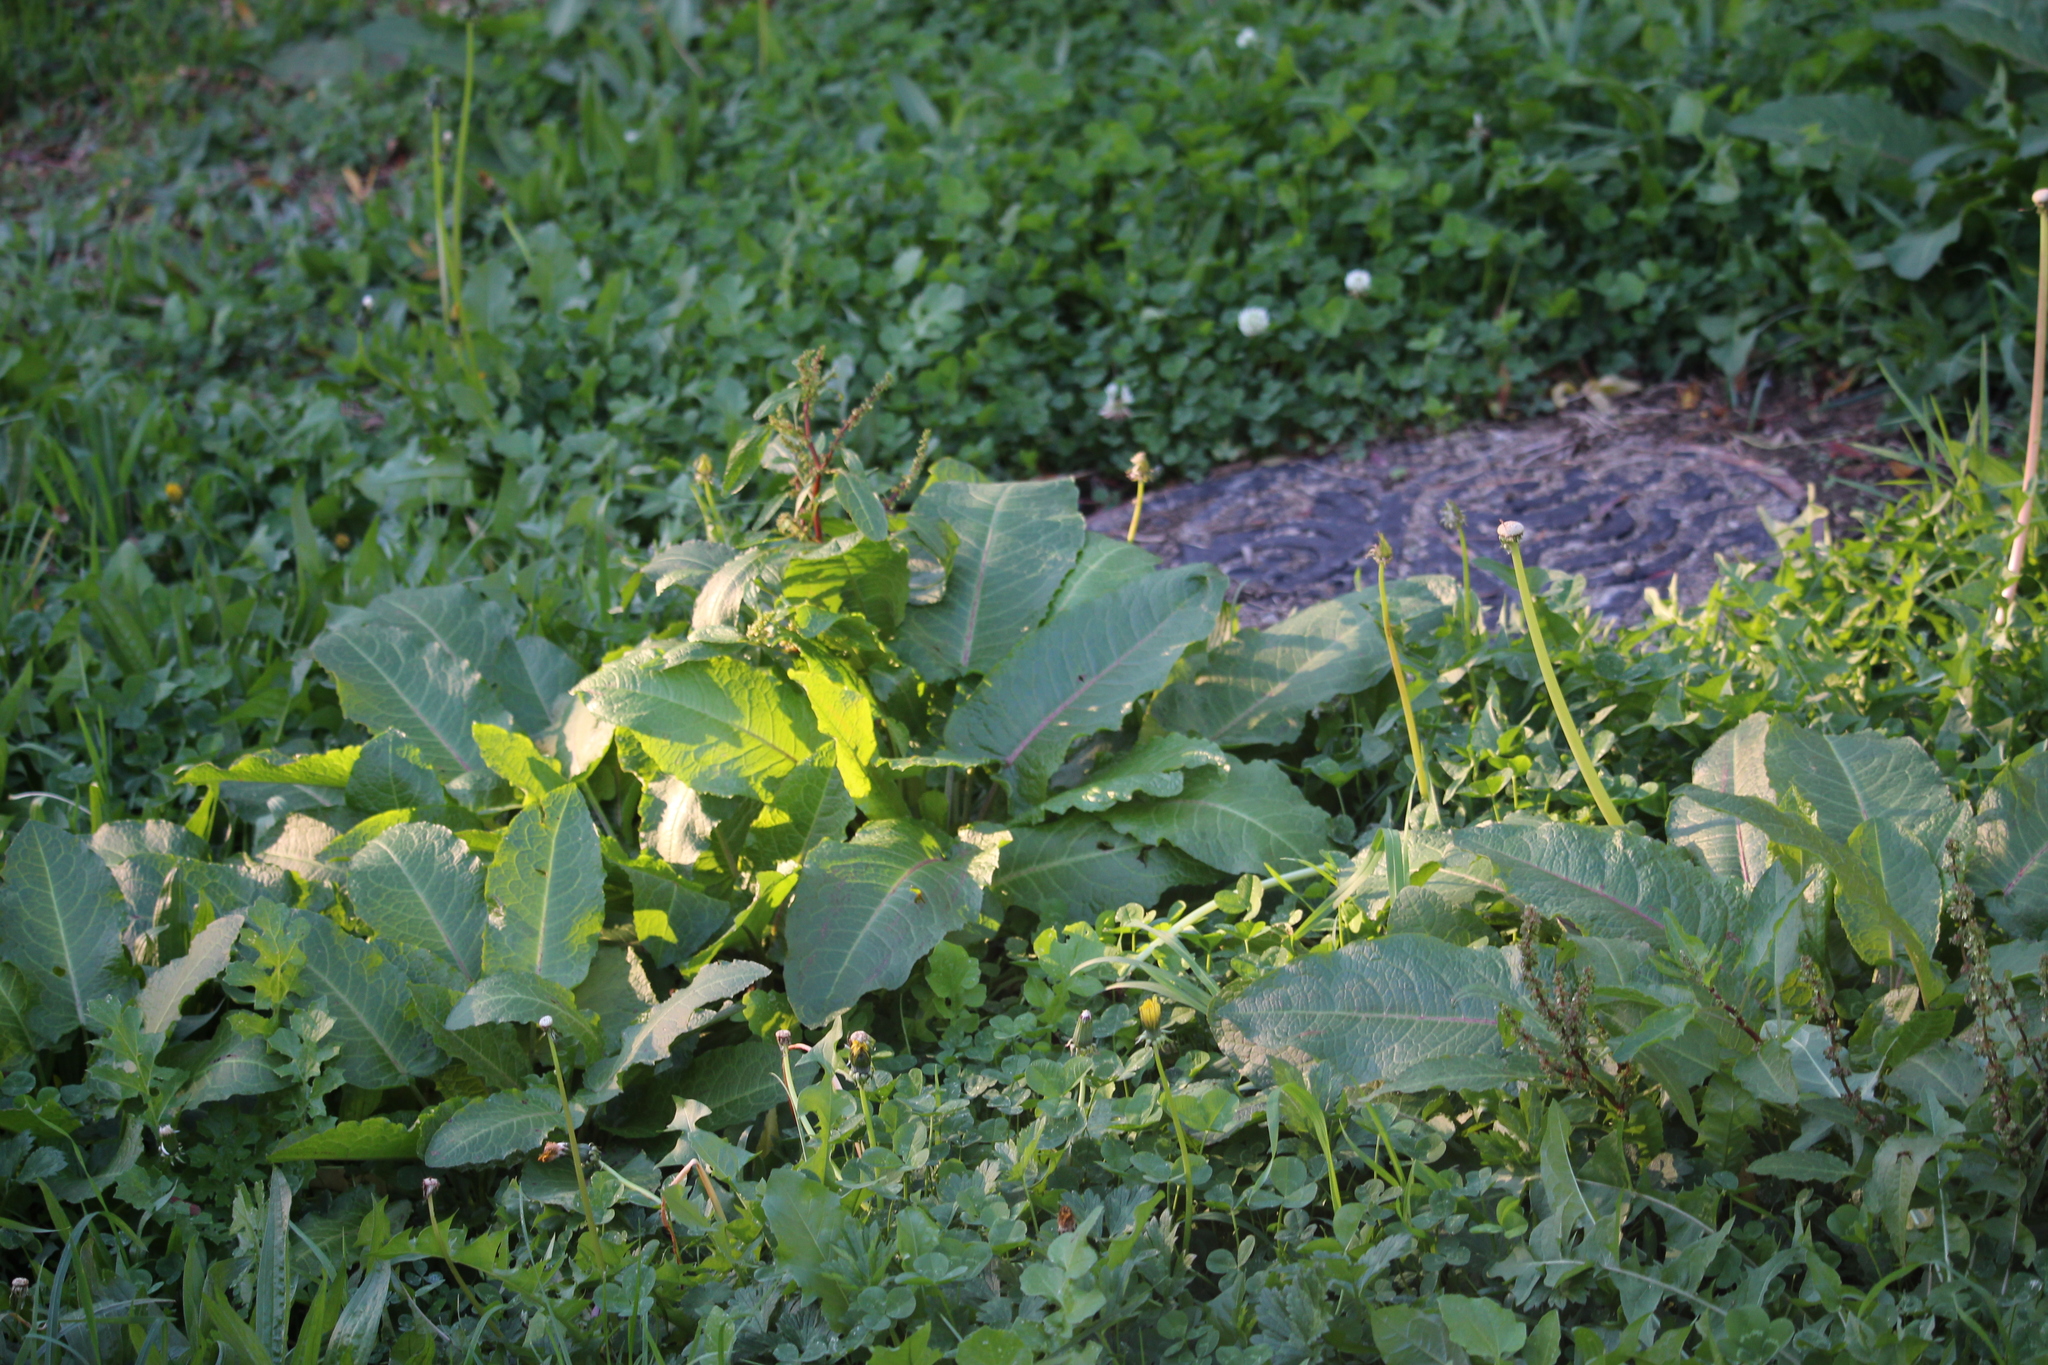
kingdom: Plantae
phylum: Tracheophyta
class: Magnoliopsida
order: Caryophyllales
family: Polygonaceae
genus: Rumex
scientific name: Rumex obtusifolius
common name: Bitter dock
